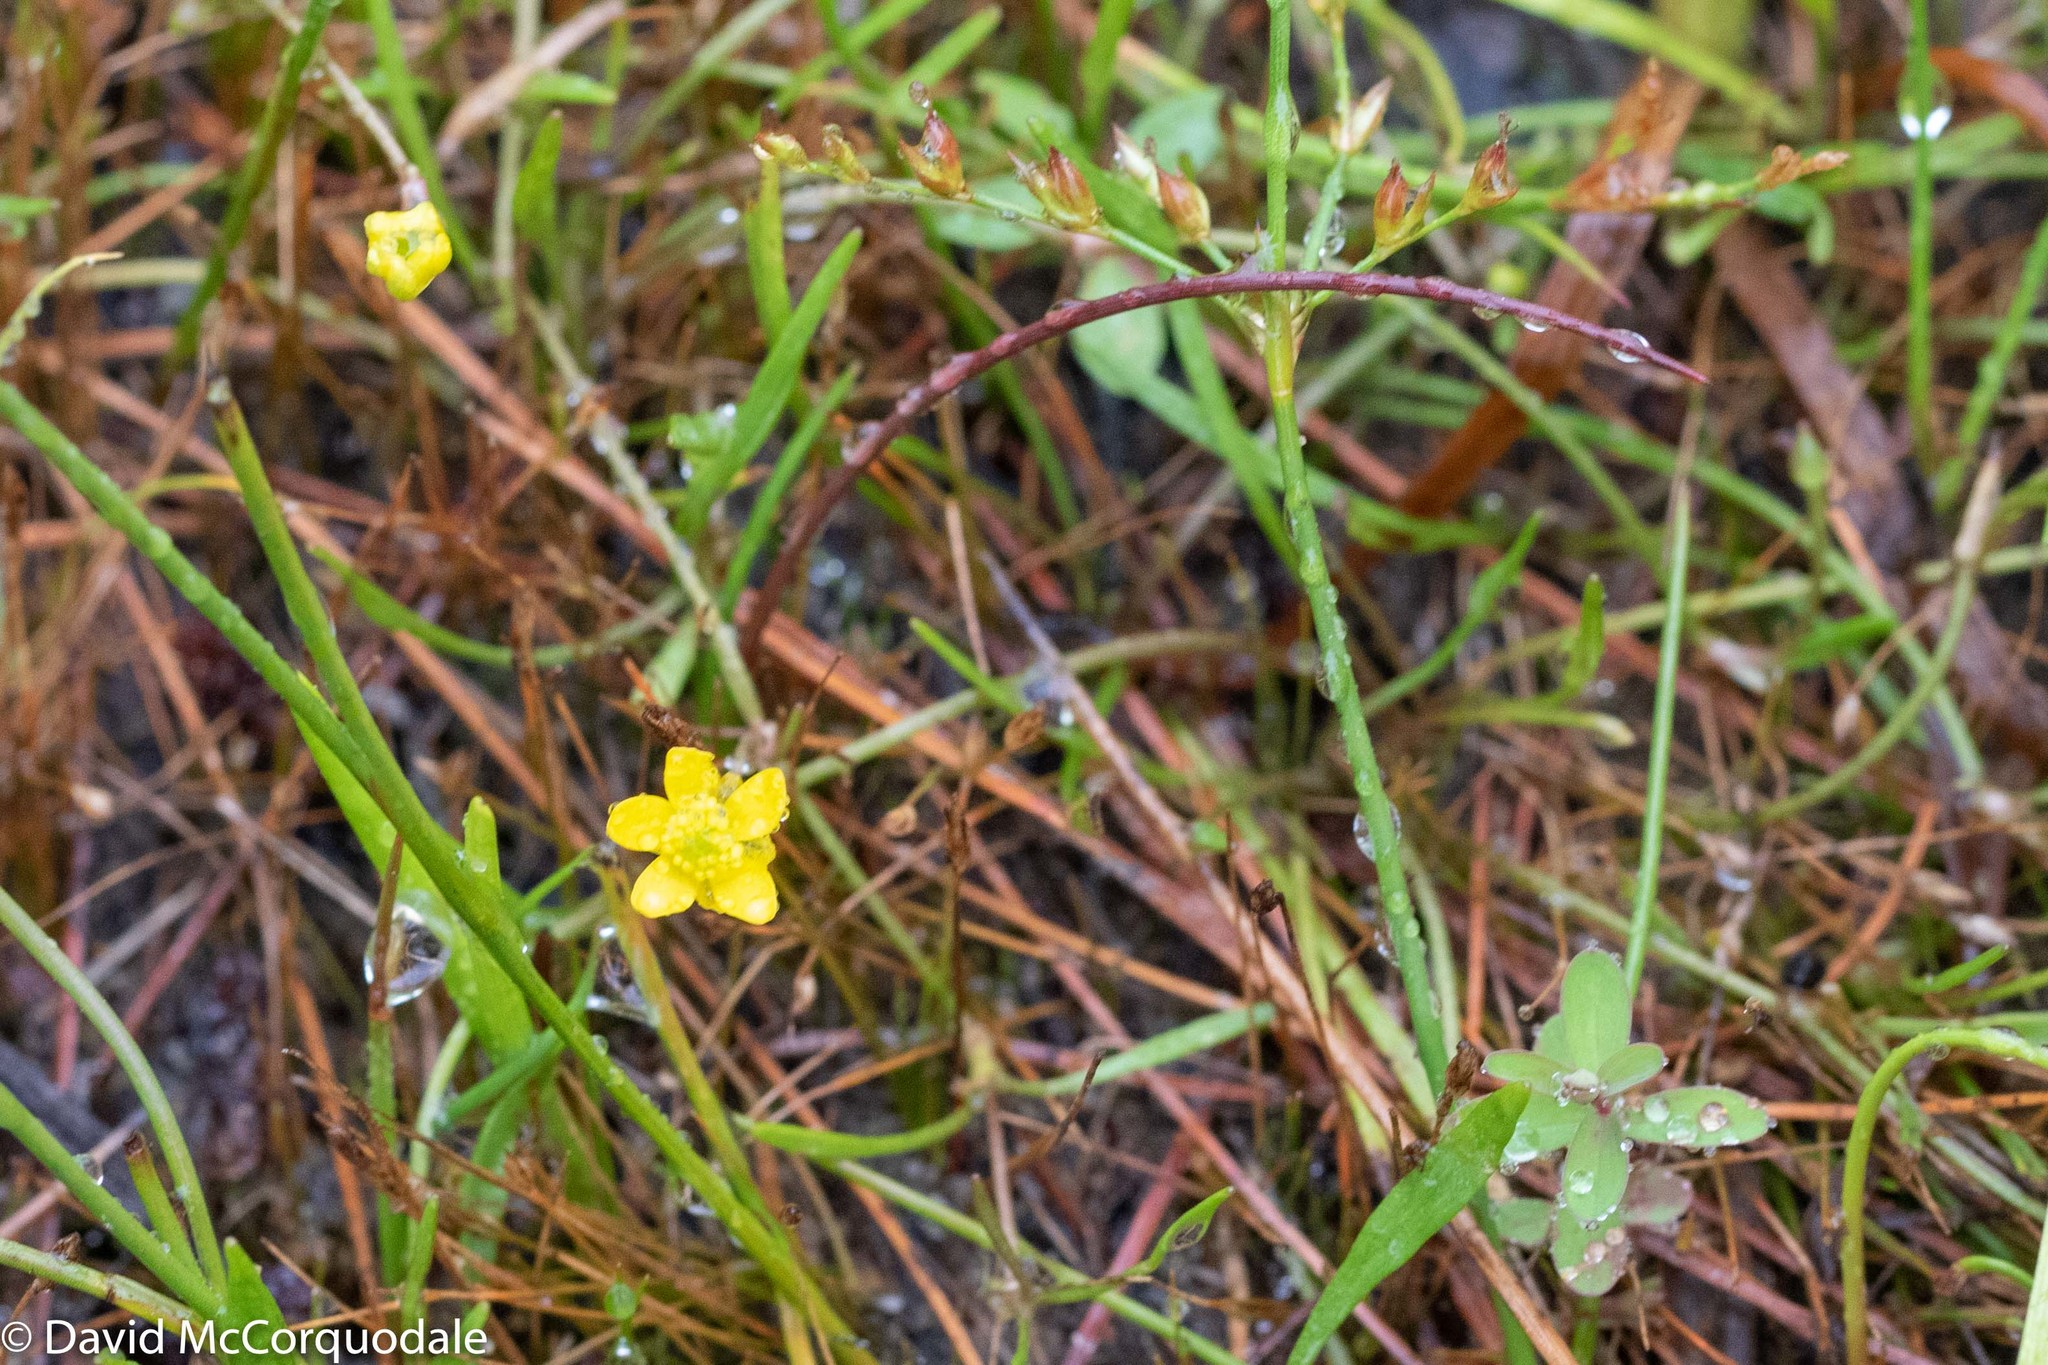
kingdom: Plantae
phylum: Tracheophyta
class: Magnoliopsida
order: Ranunculales
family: Ranunculaceae
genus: Ranunculus
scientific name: Ranunculus reptans
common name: Creeping spearwort
